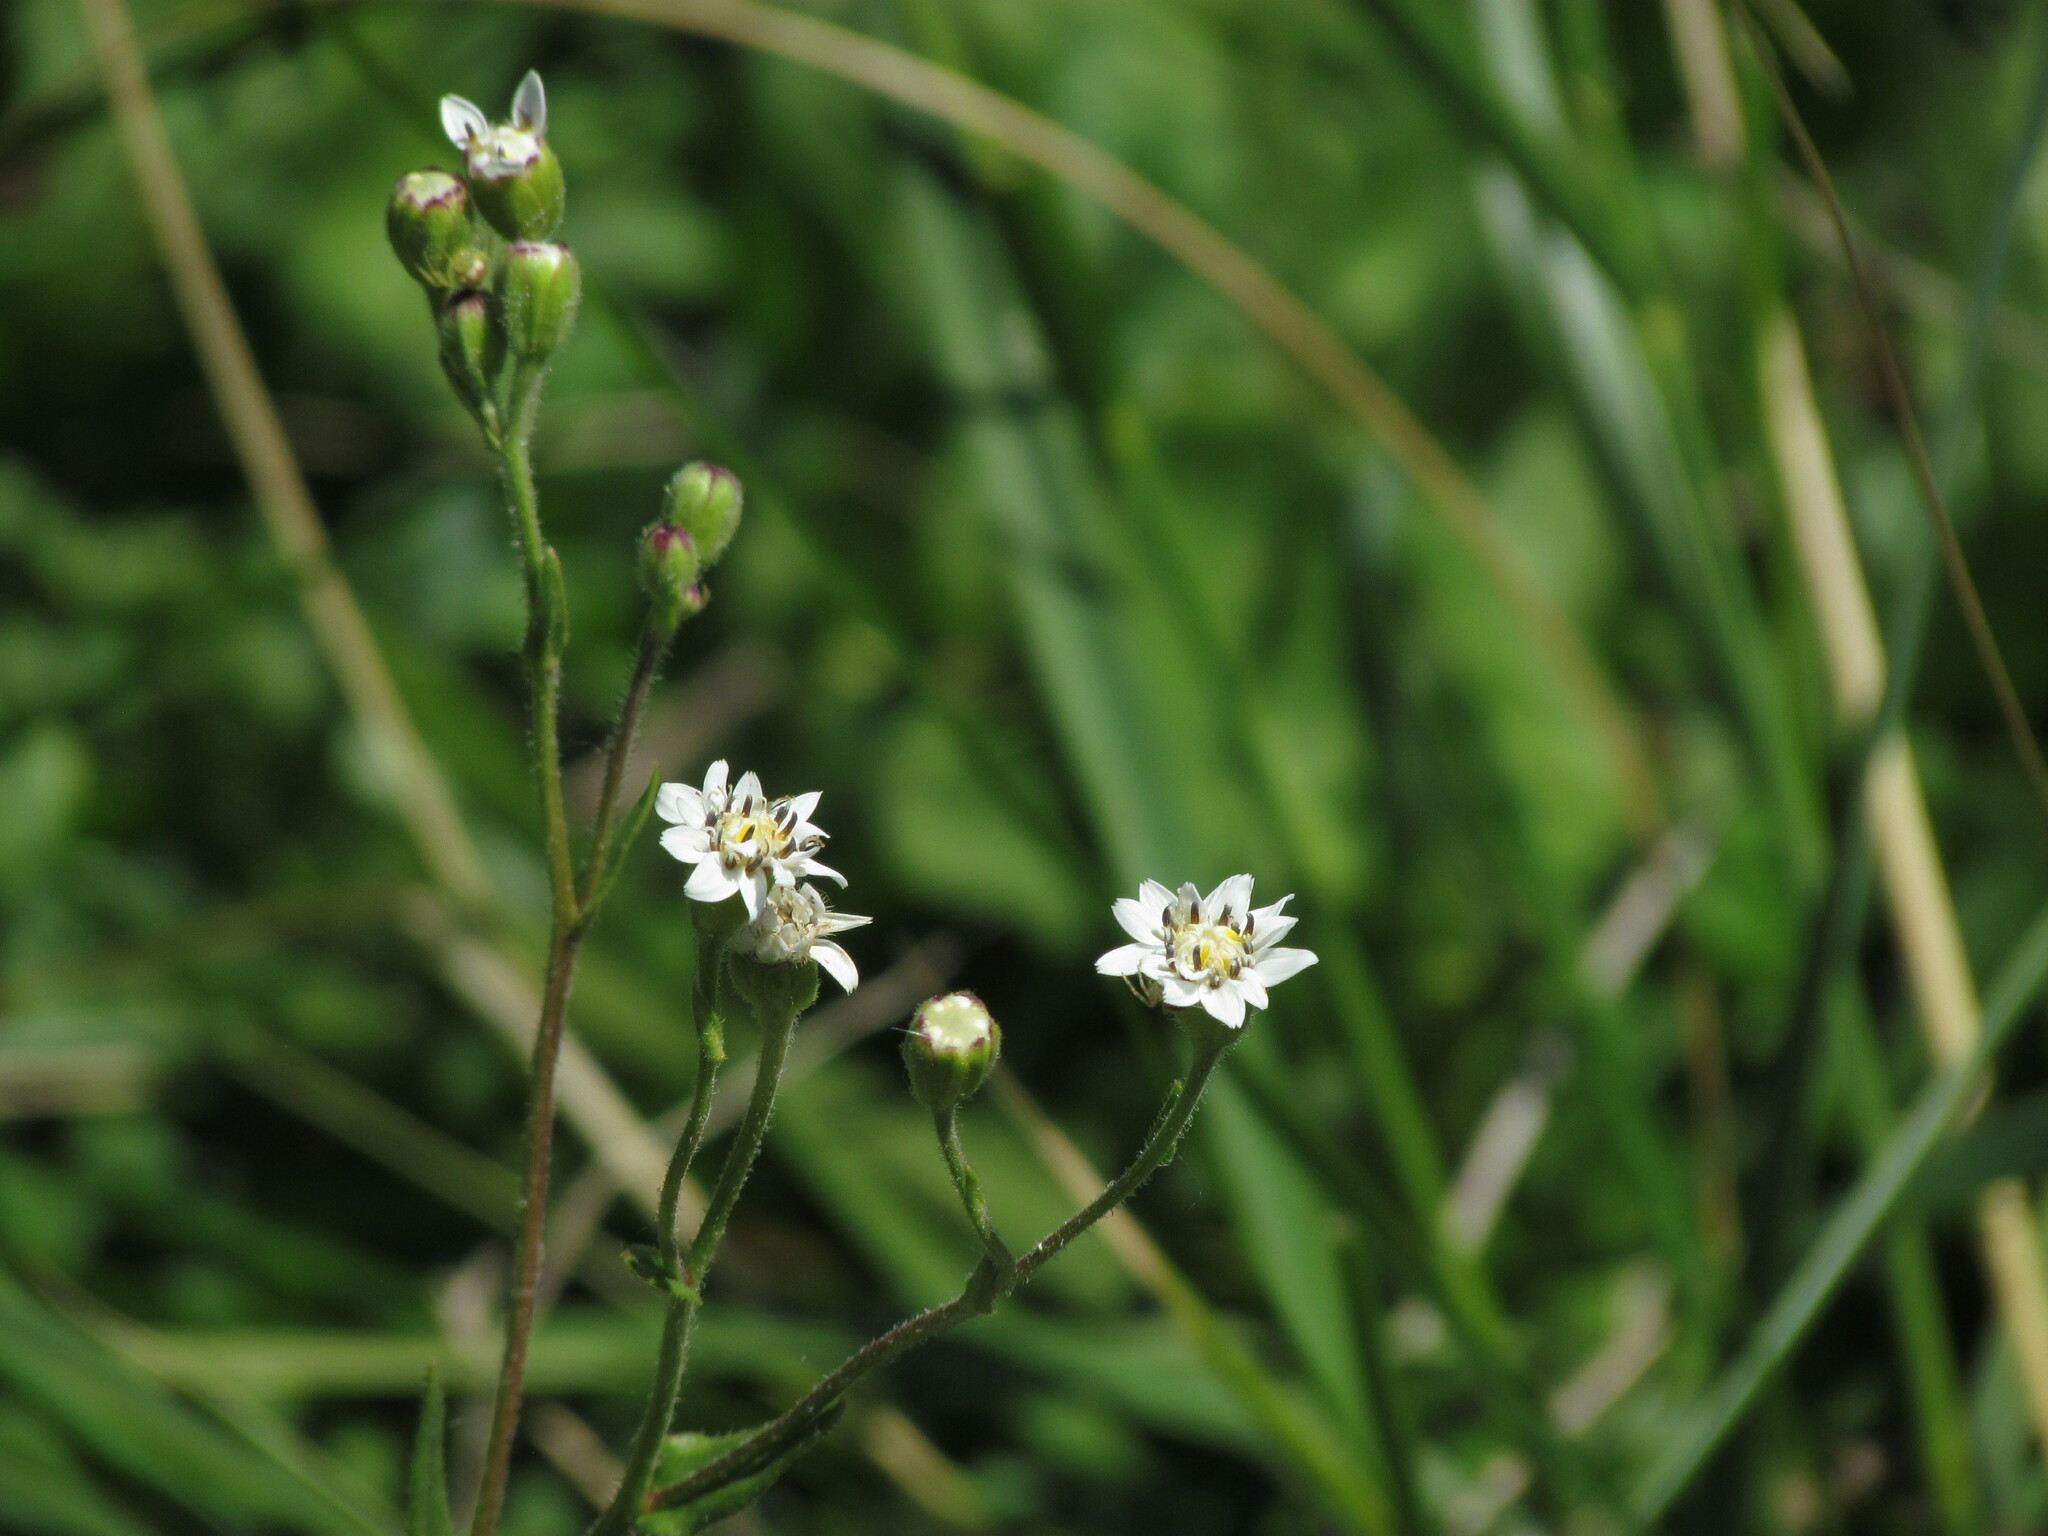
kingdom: Plantae
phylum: Tracheophyta
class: Magnoliopsida
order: Asterales
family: Asteraceae
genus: Holocheilus
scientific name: Holocheilus hieracioides
